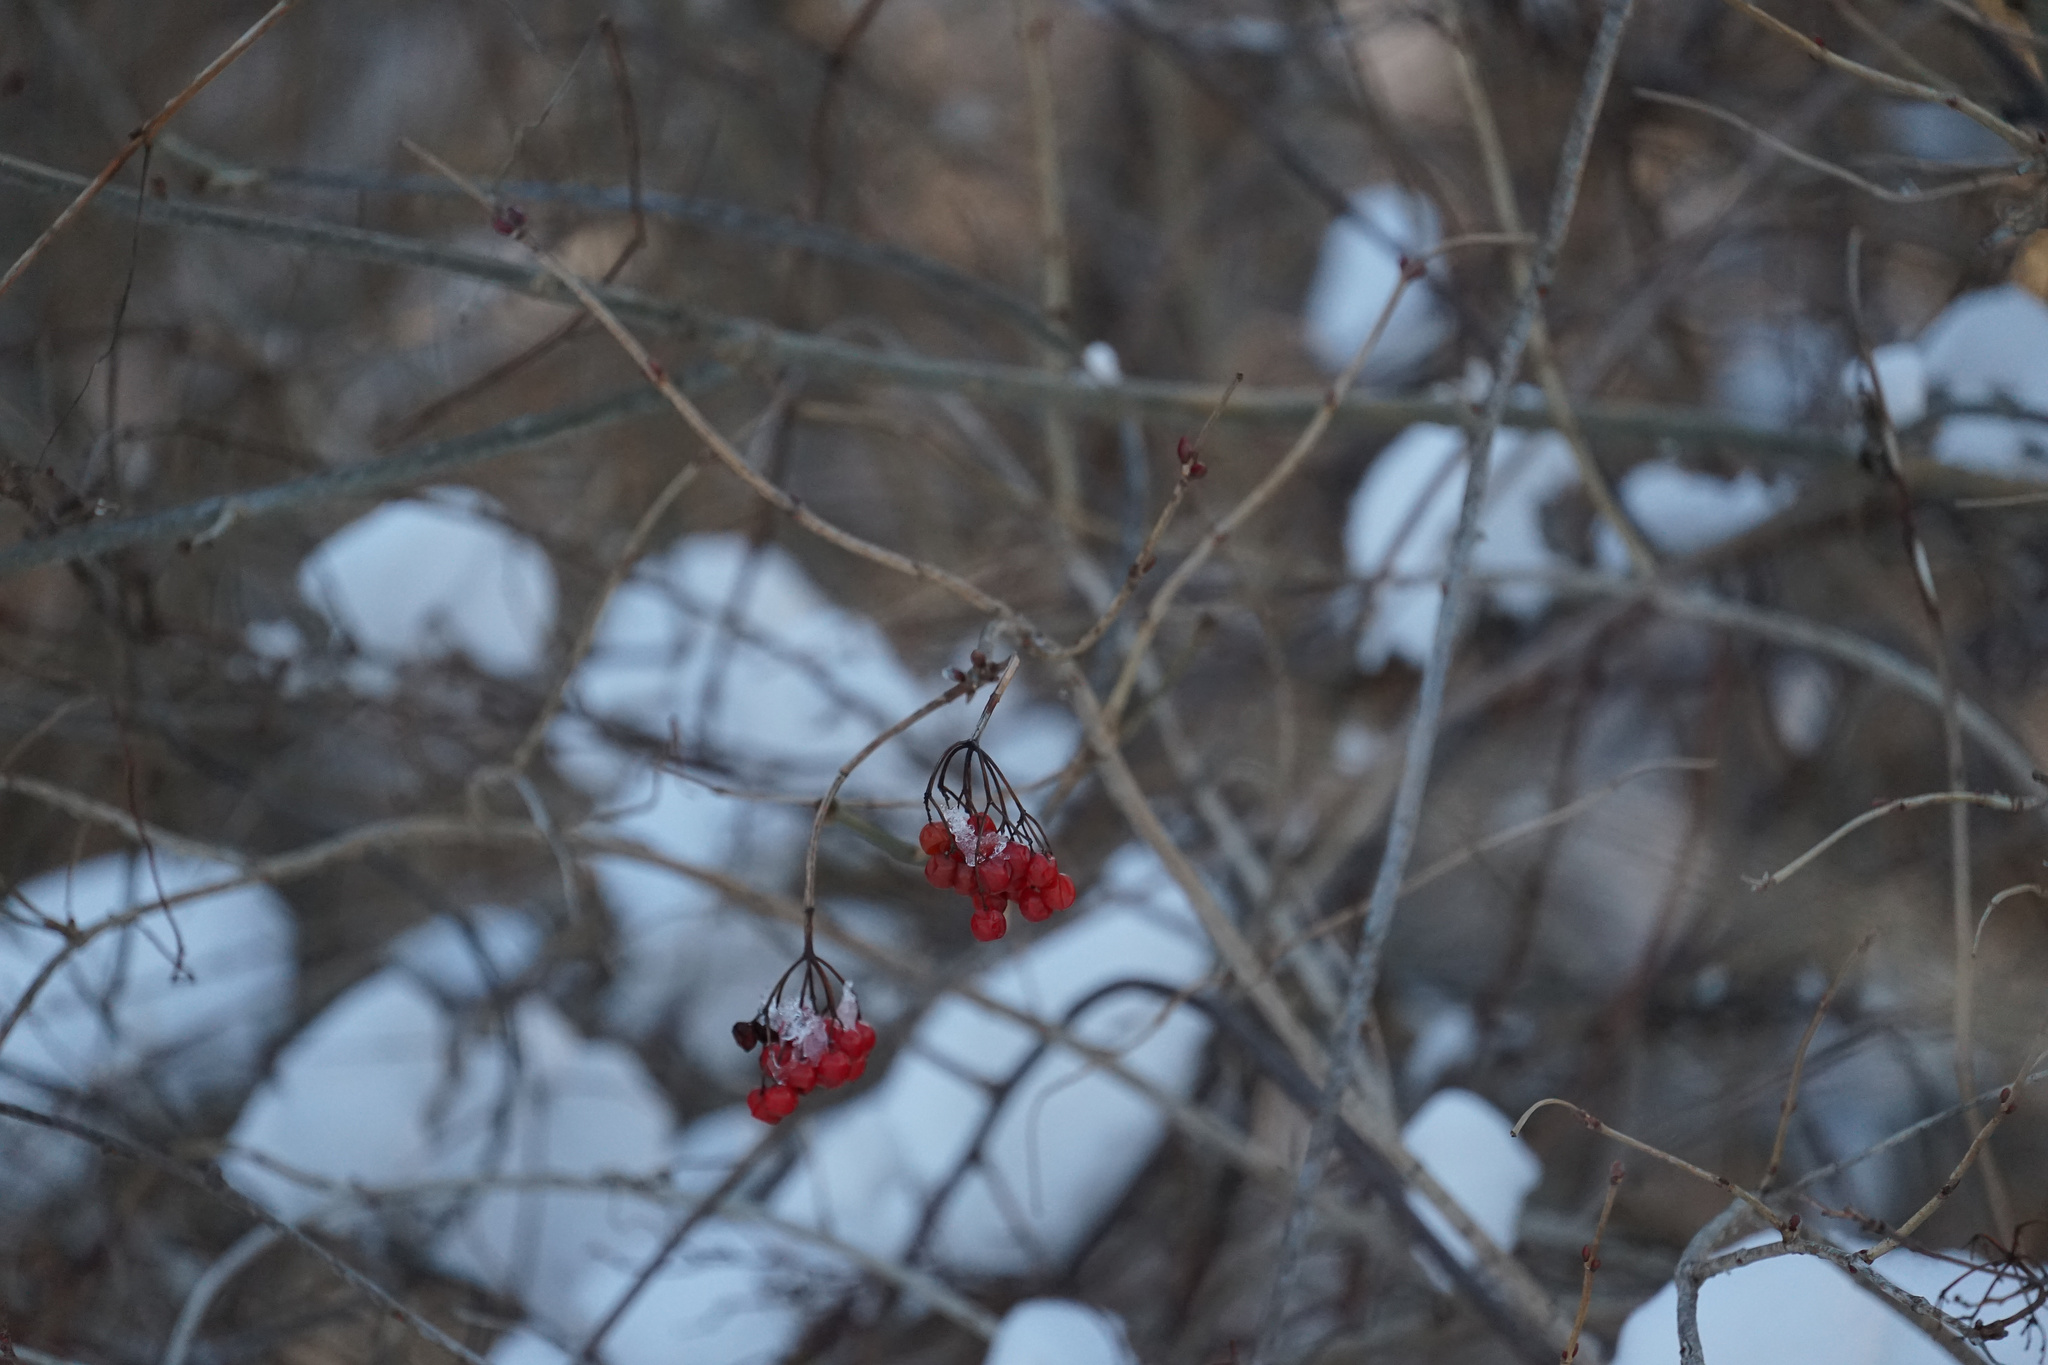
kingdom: Plantae
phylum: Tracheophyta
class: Magnoliopsida
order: Dipsacales
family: Viburnaceae
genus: Viburnum
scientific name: Viburnum opulus
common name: Guelder-rose
